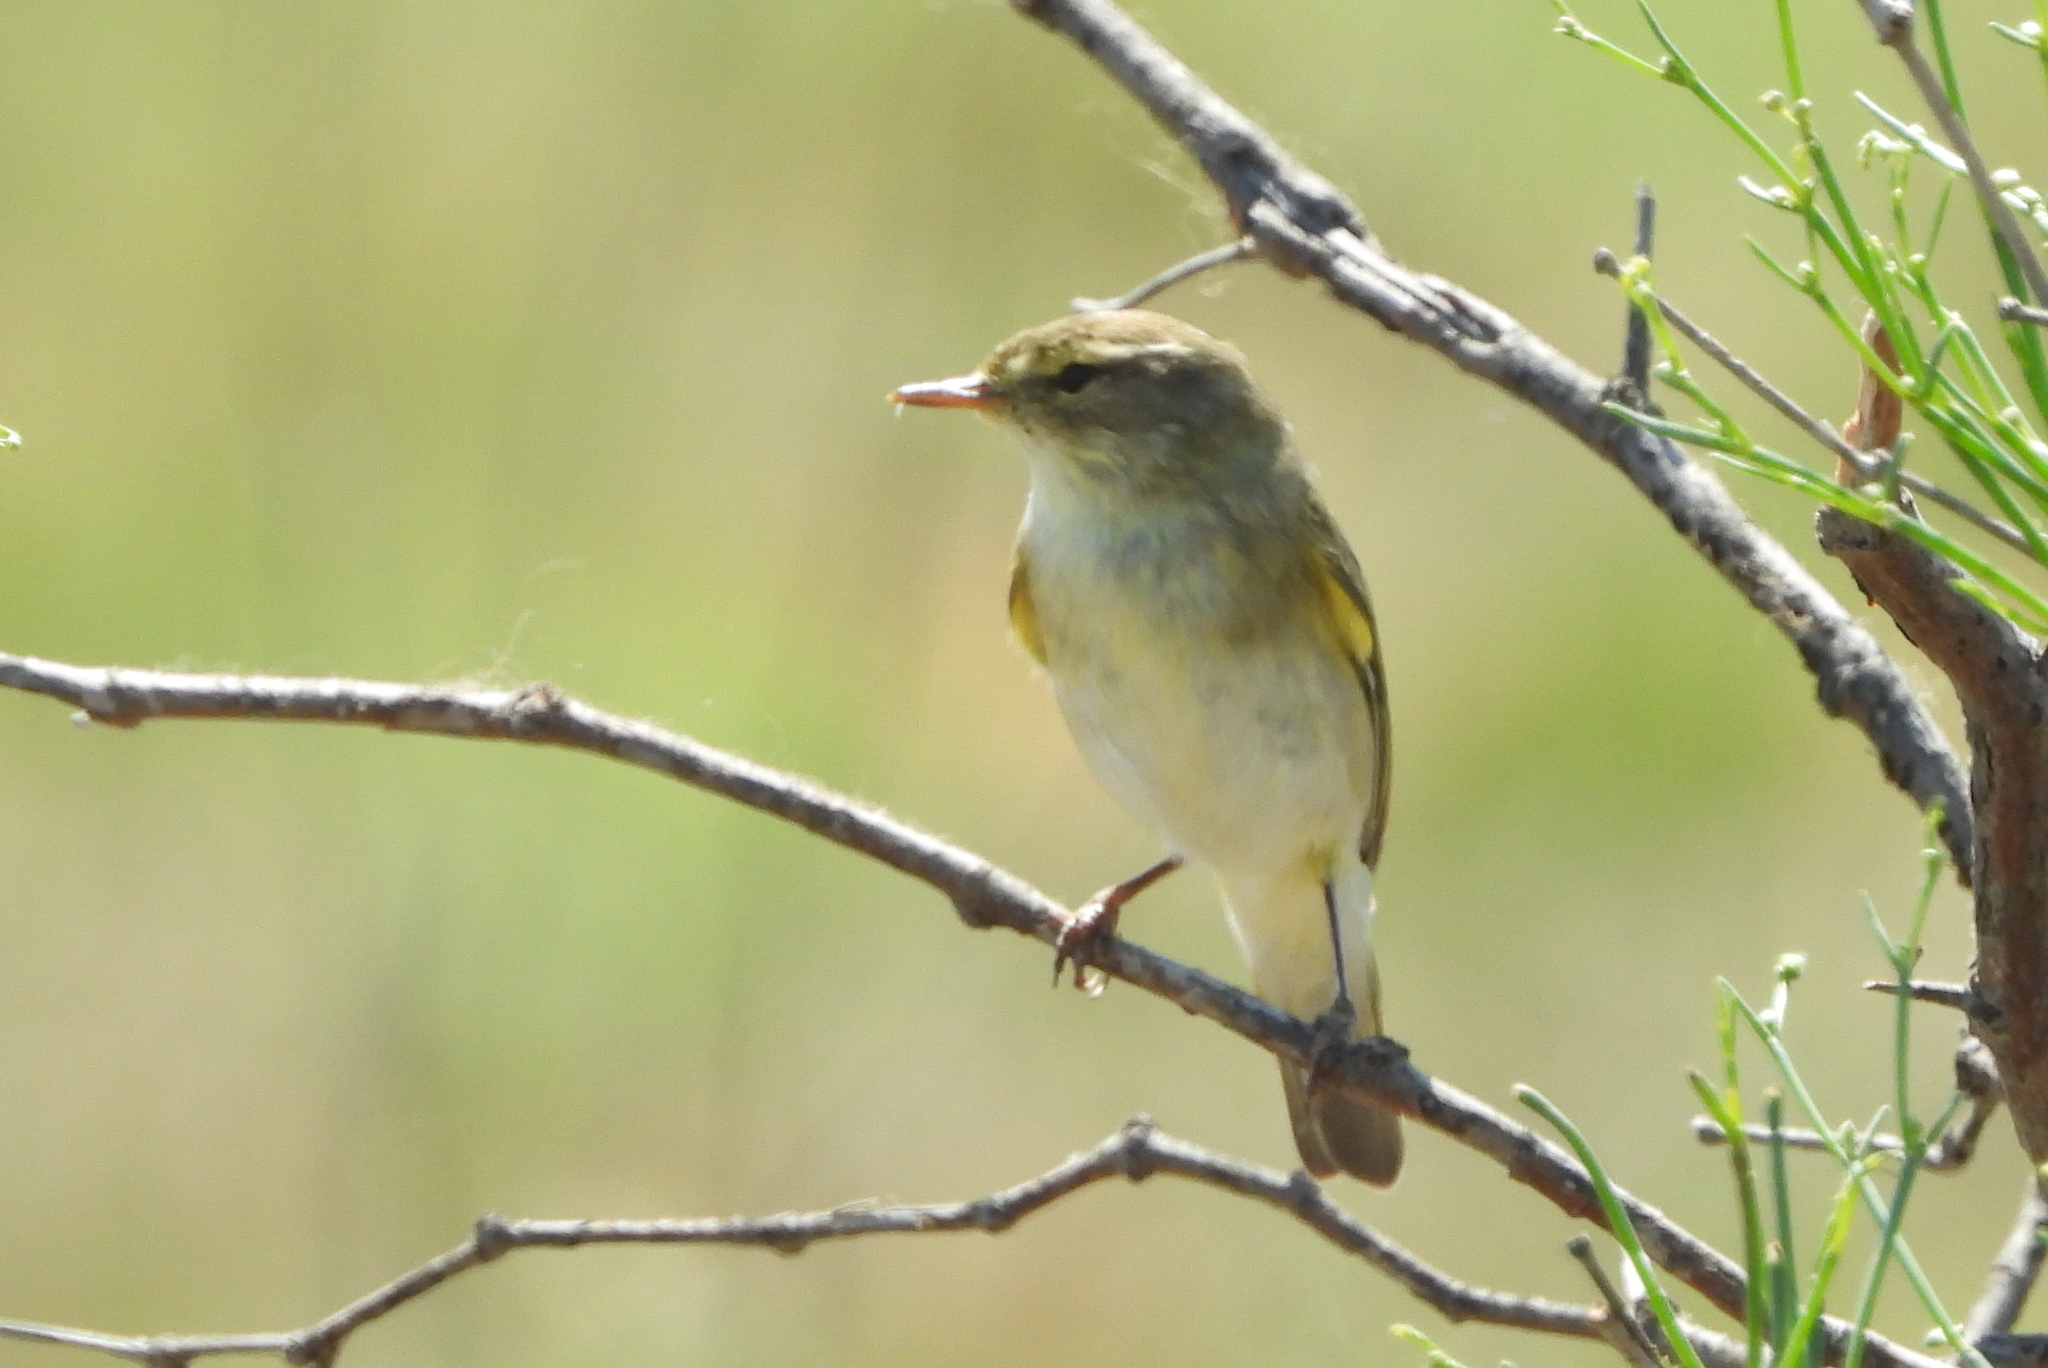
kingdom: Animalia
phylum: Chordata
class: Aves
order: Passeriformes
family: Phylloscopidae
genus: Phylloscopus
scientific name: Phylloscopus collybita
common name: Common chiffchaff
